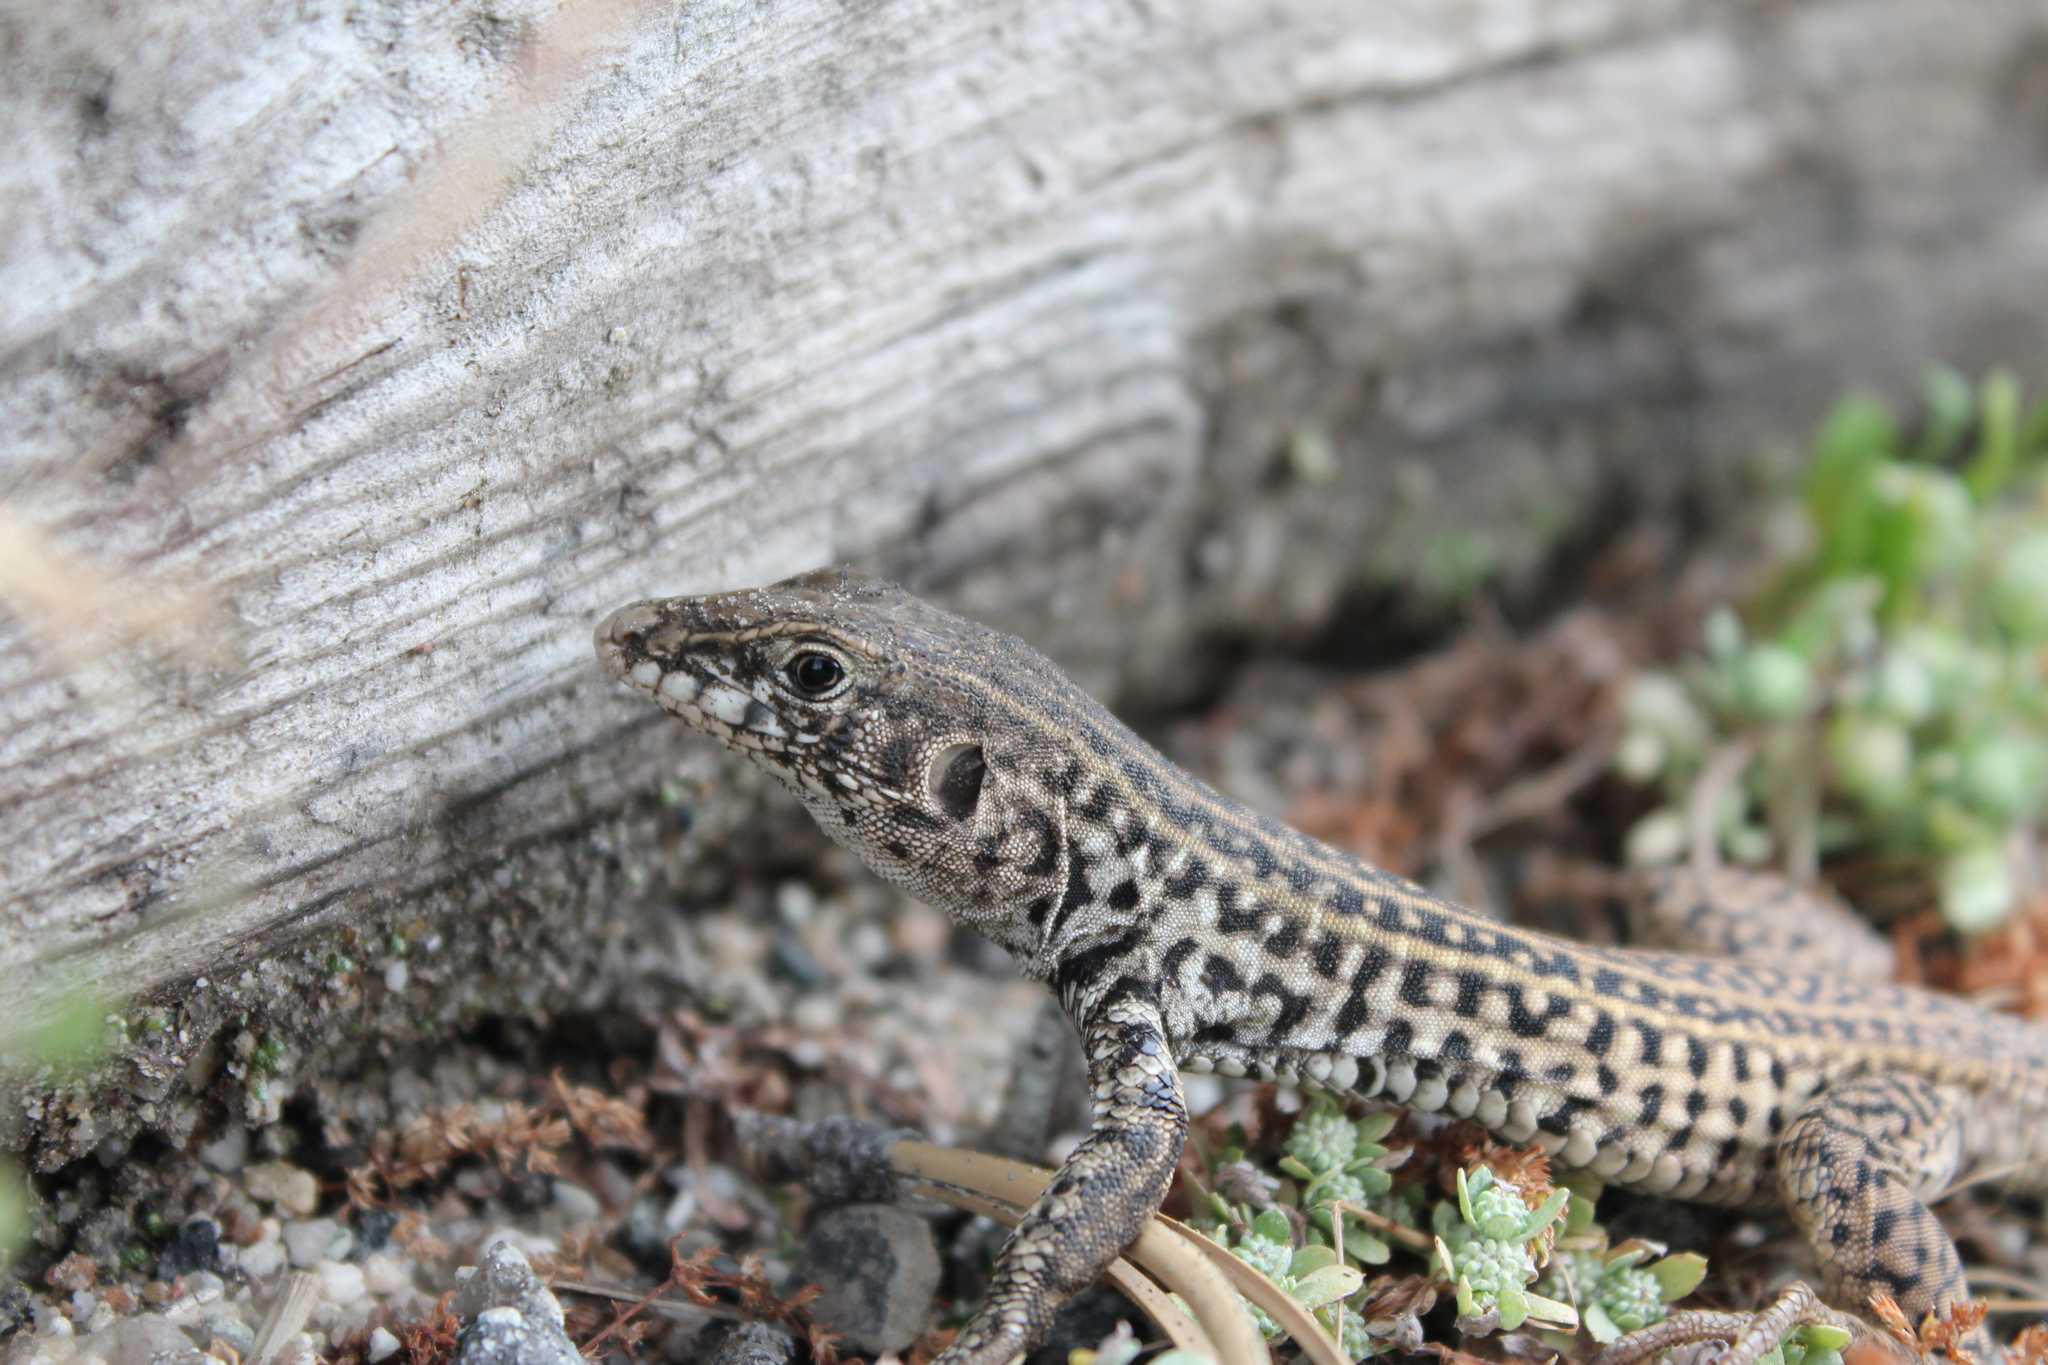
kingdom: Animalia
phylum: Chordata
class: Squamata
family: Teiidae
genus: Aspidoscelis
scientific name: Aspidoscelis tigris
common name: Tiger whiptail
